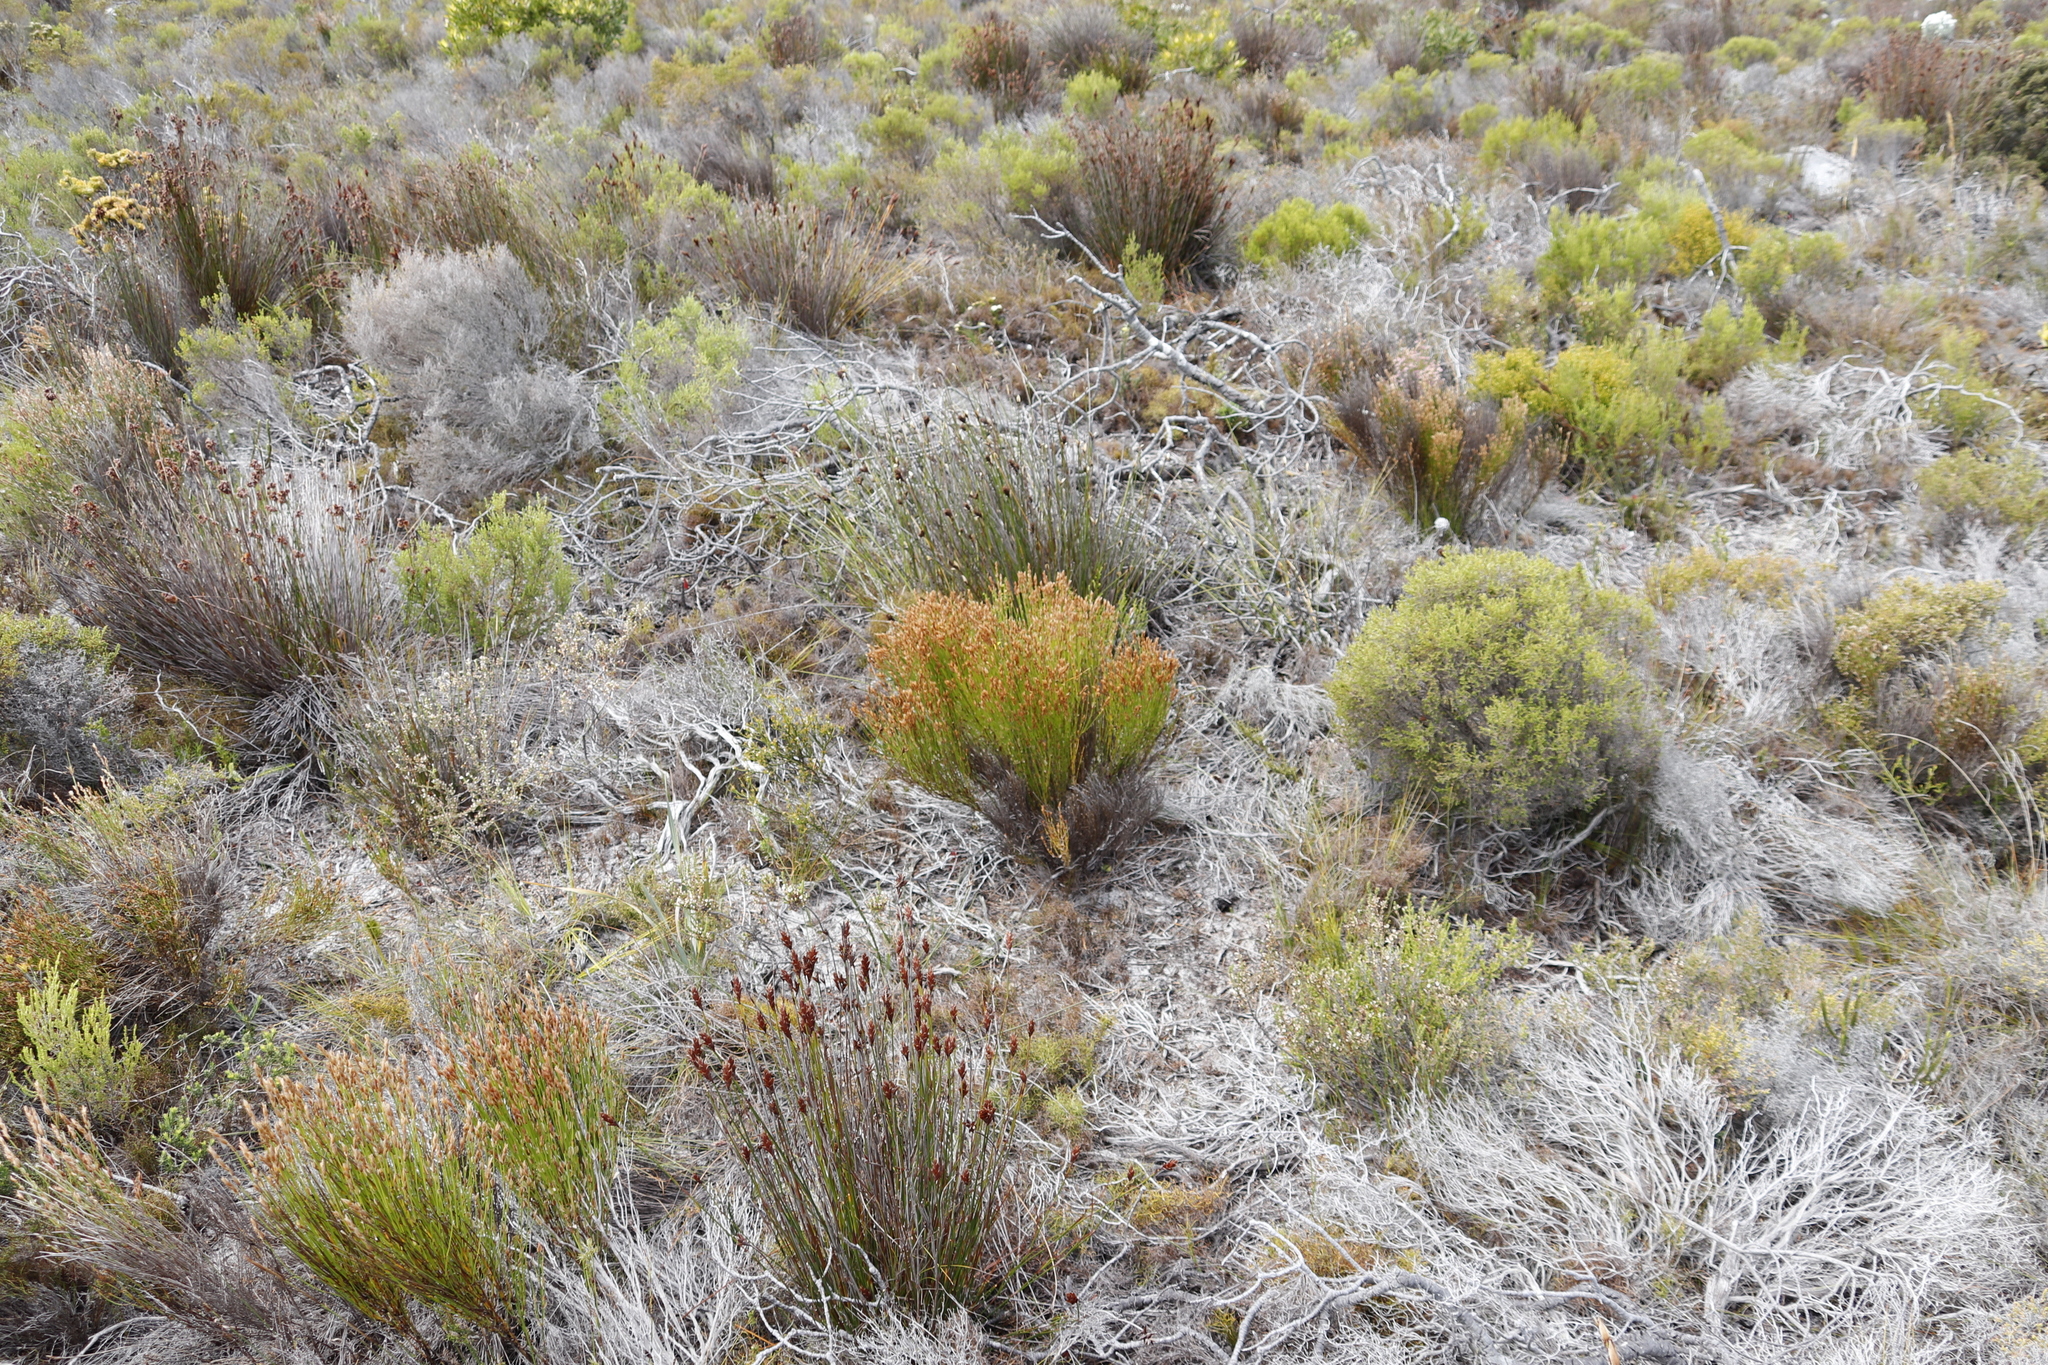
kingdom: Plantae
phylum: Tracheophyta
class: Liliopsida
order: Poales
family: Restionaceae
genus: Elegia
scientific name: Elegia stipularis
